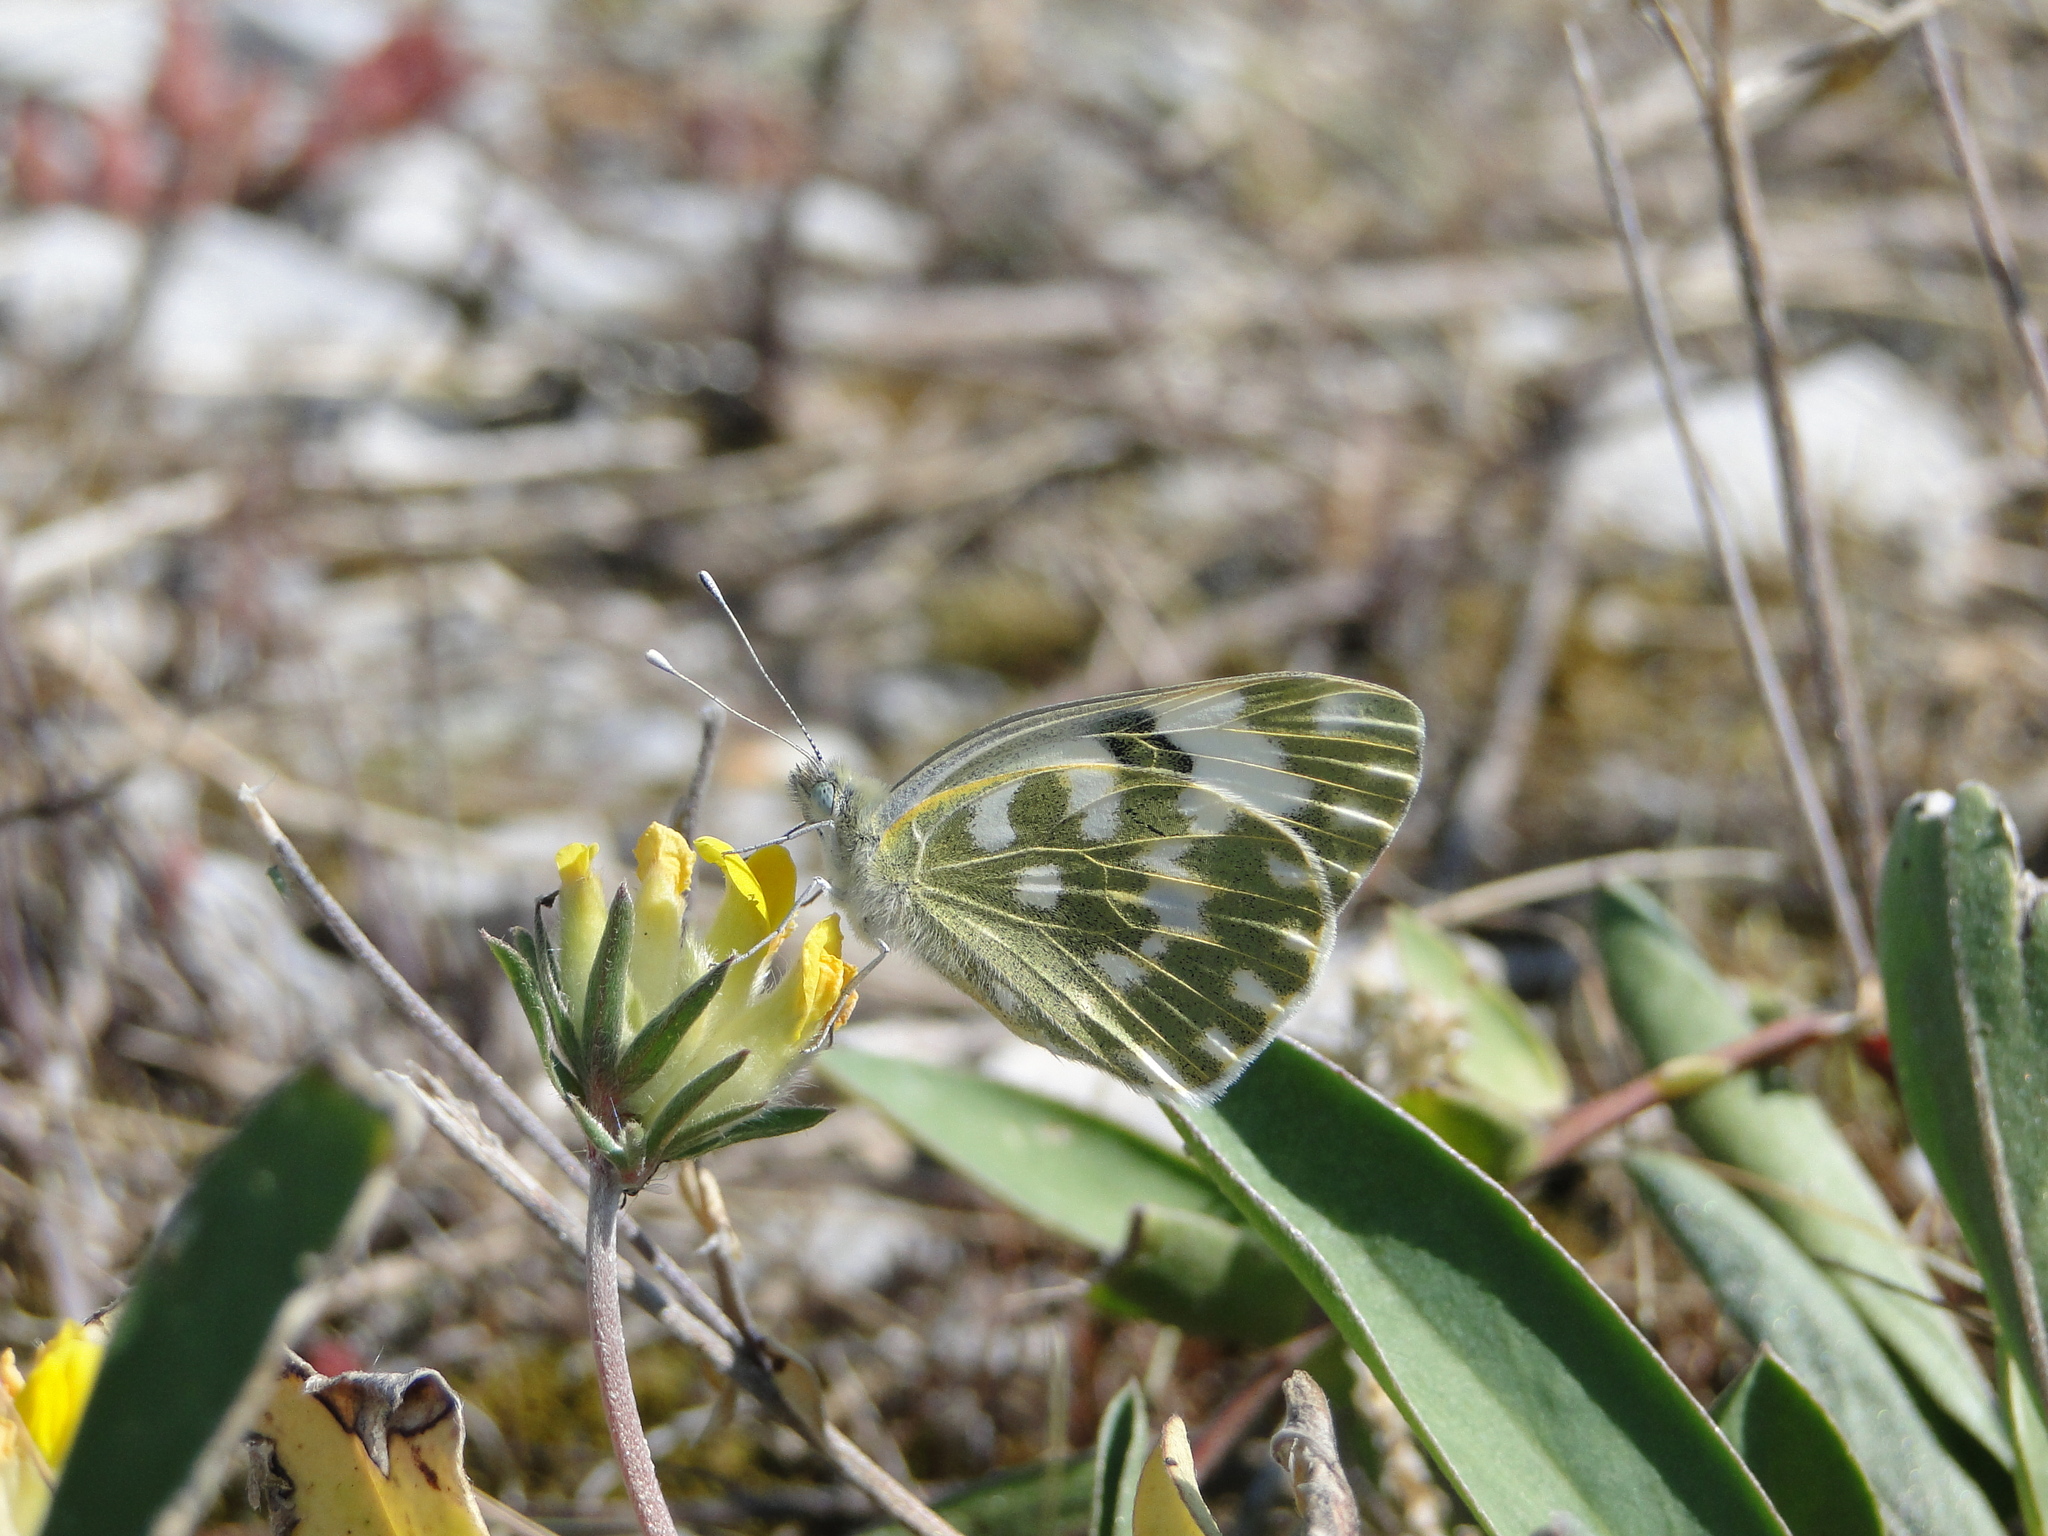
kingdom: Animalia
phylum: Arthropoda
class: Insecta
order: Lepidoptera
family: Pieridae
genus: Pontia
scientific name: Pontia edusa
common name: Eastern bath white
